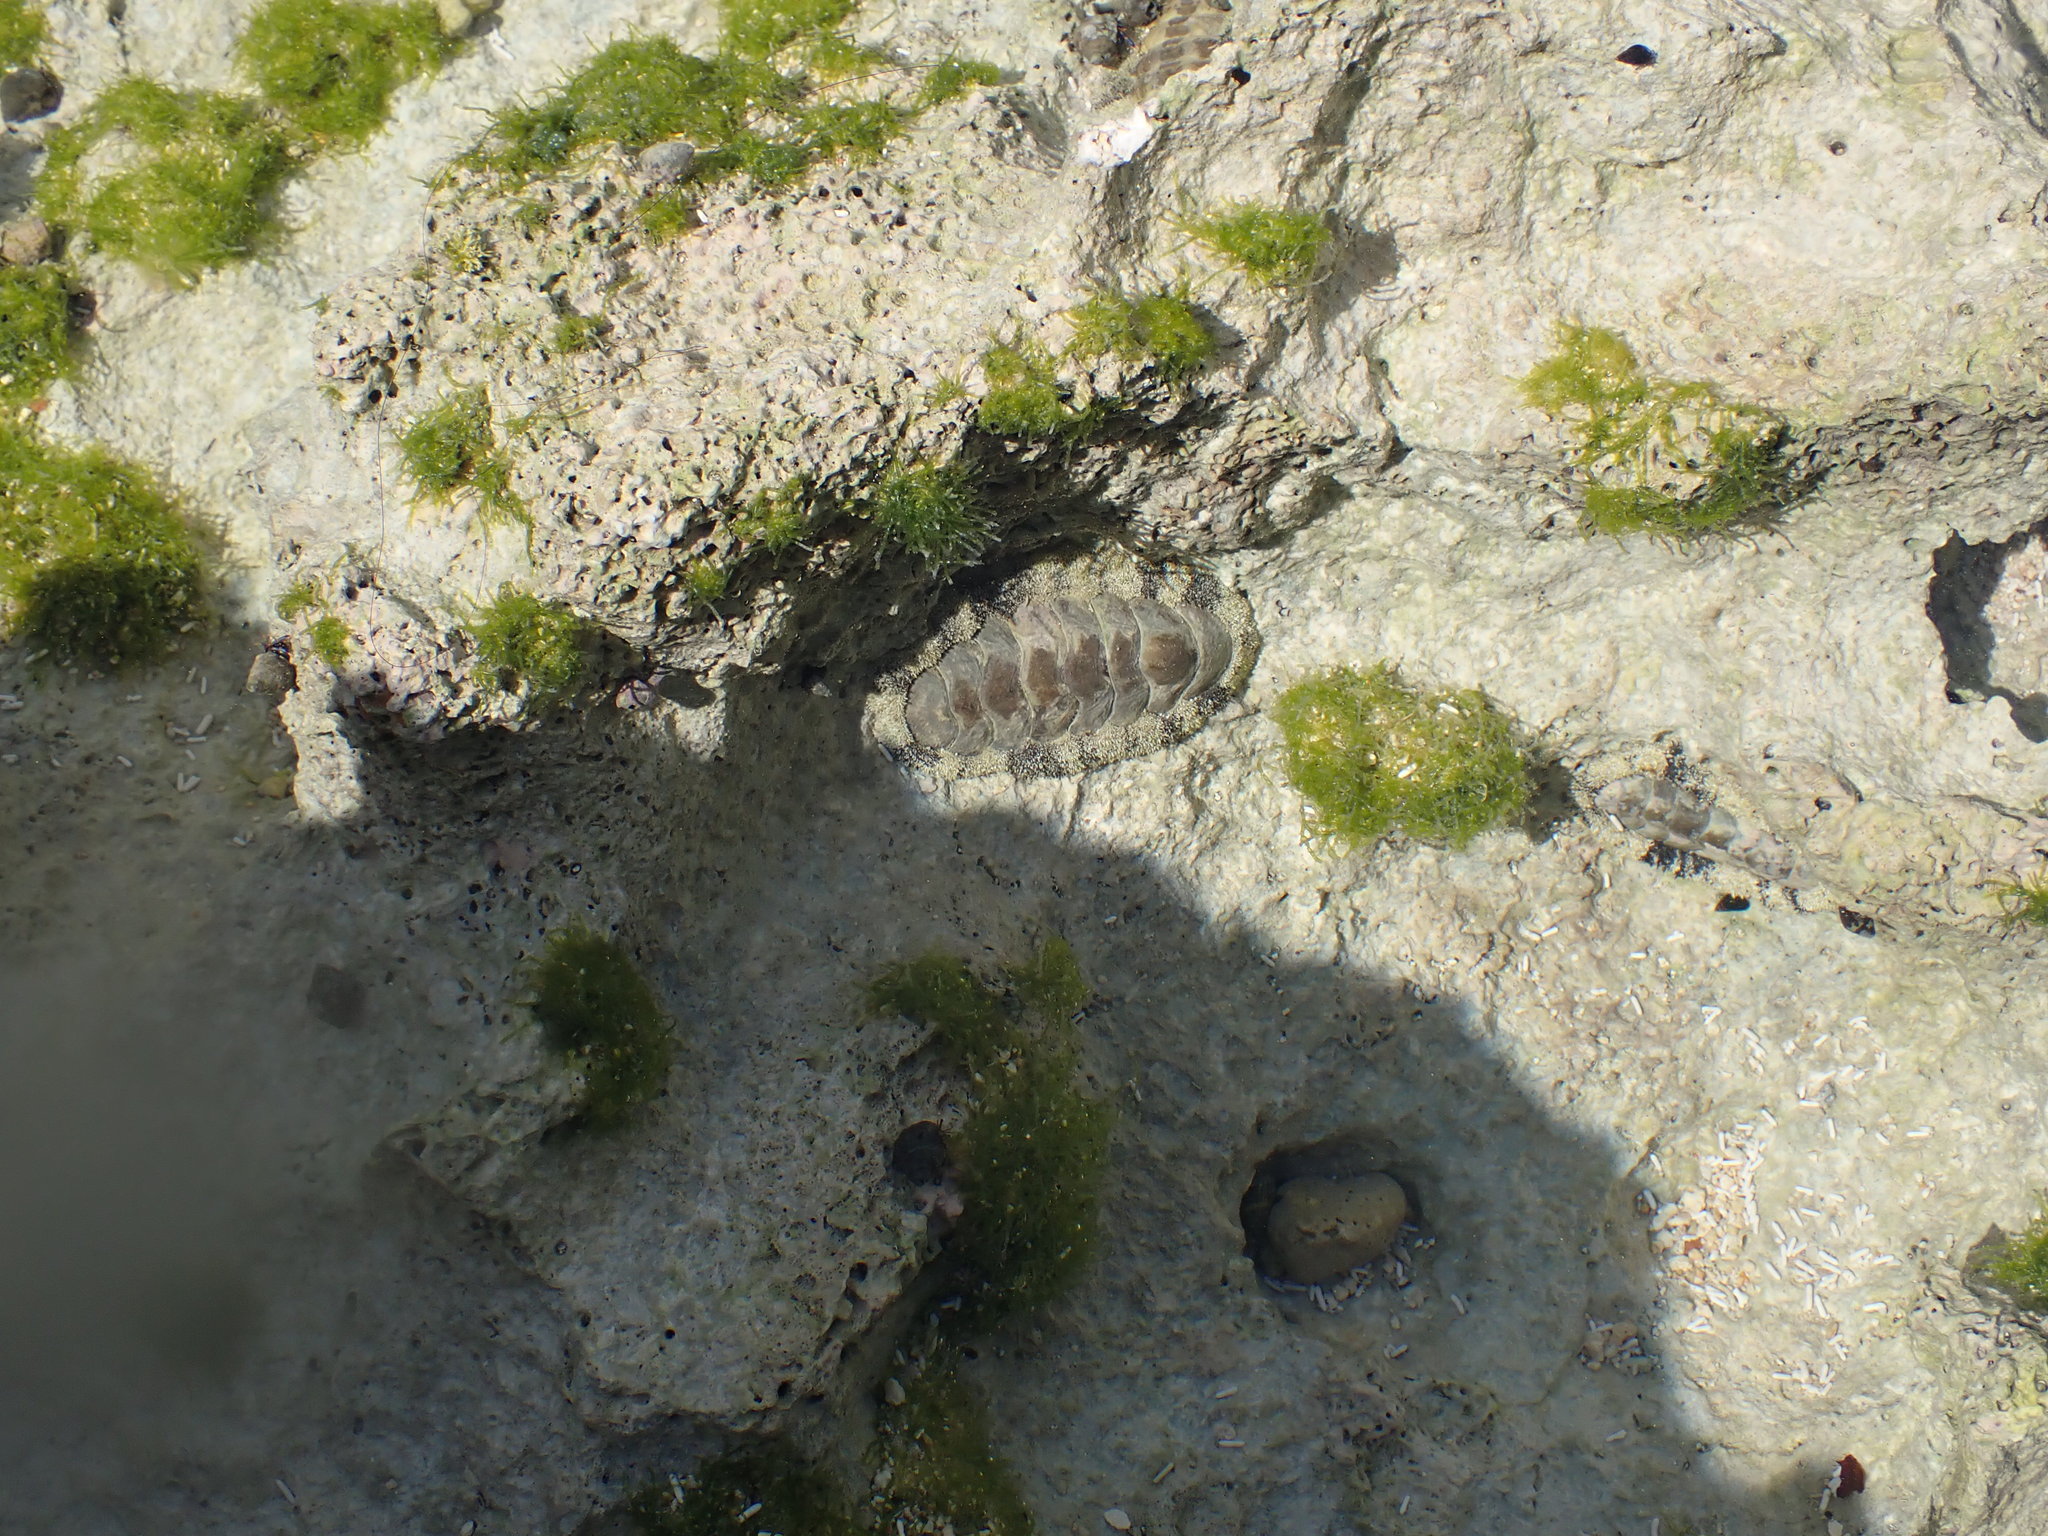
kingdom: Animalia
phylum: Mollusca
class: Polyplacophora
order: Chitonida
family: Chitonidae
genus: Acanthopleura
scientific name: Acanthopleura granulata
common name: West indian fuzzy chiton
